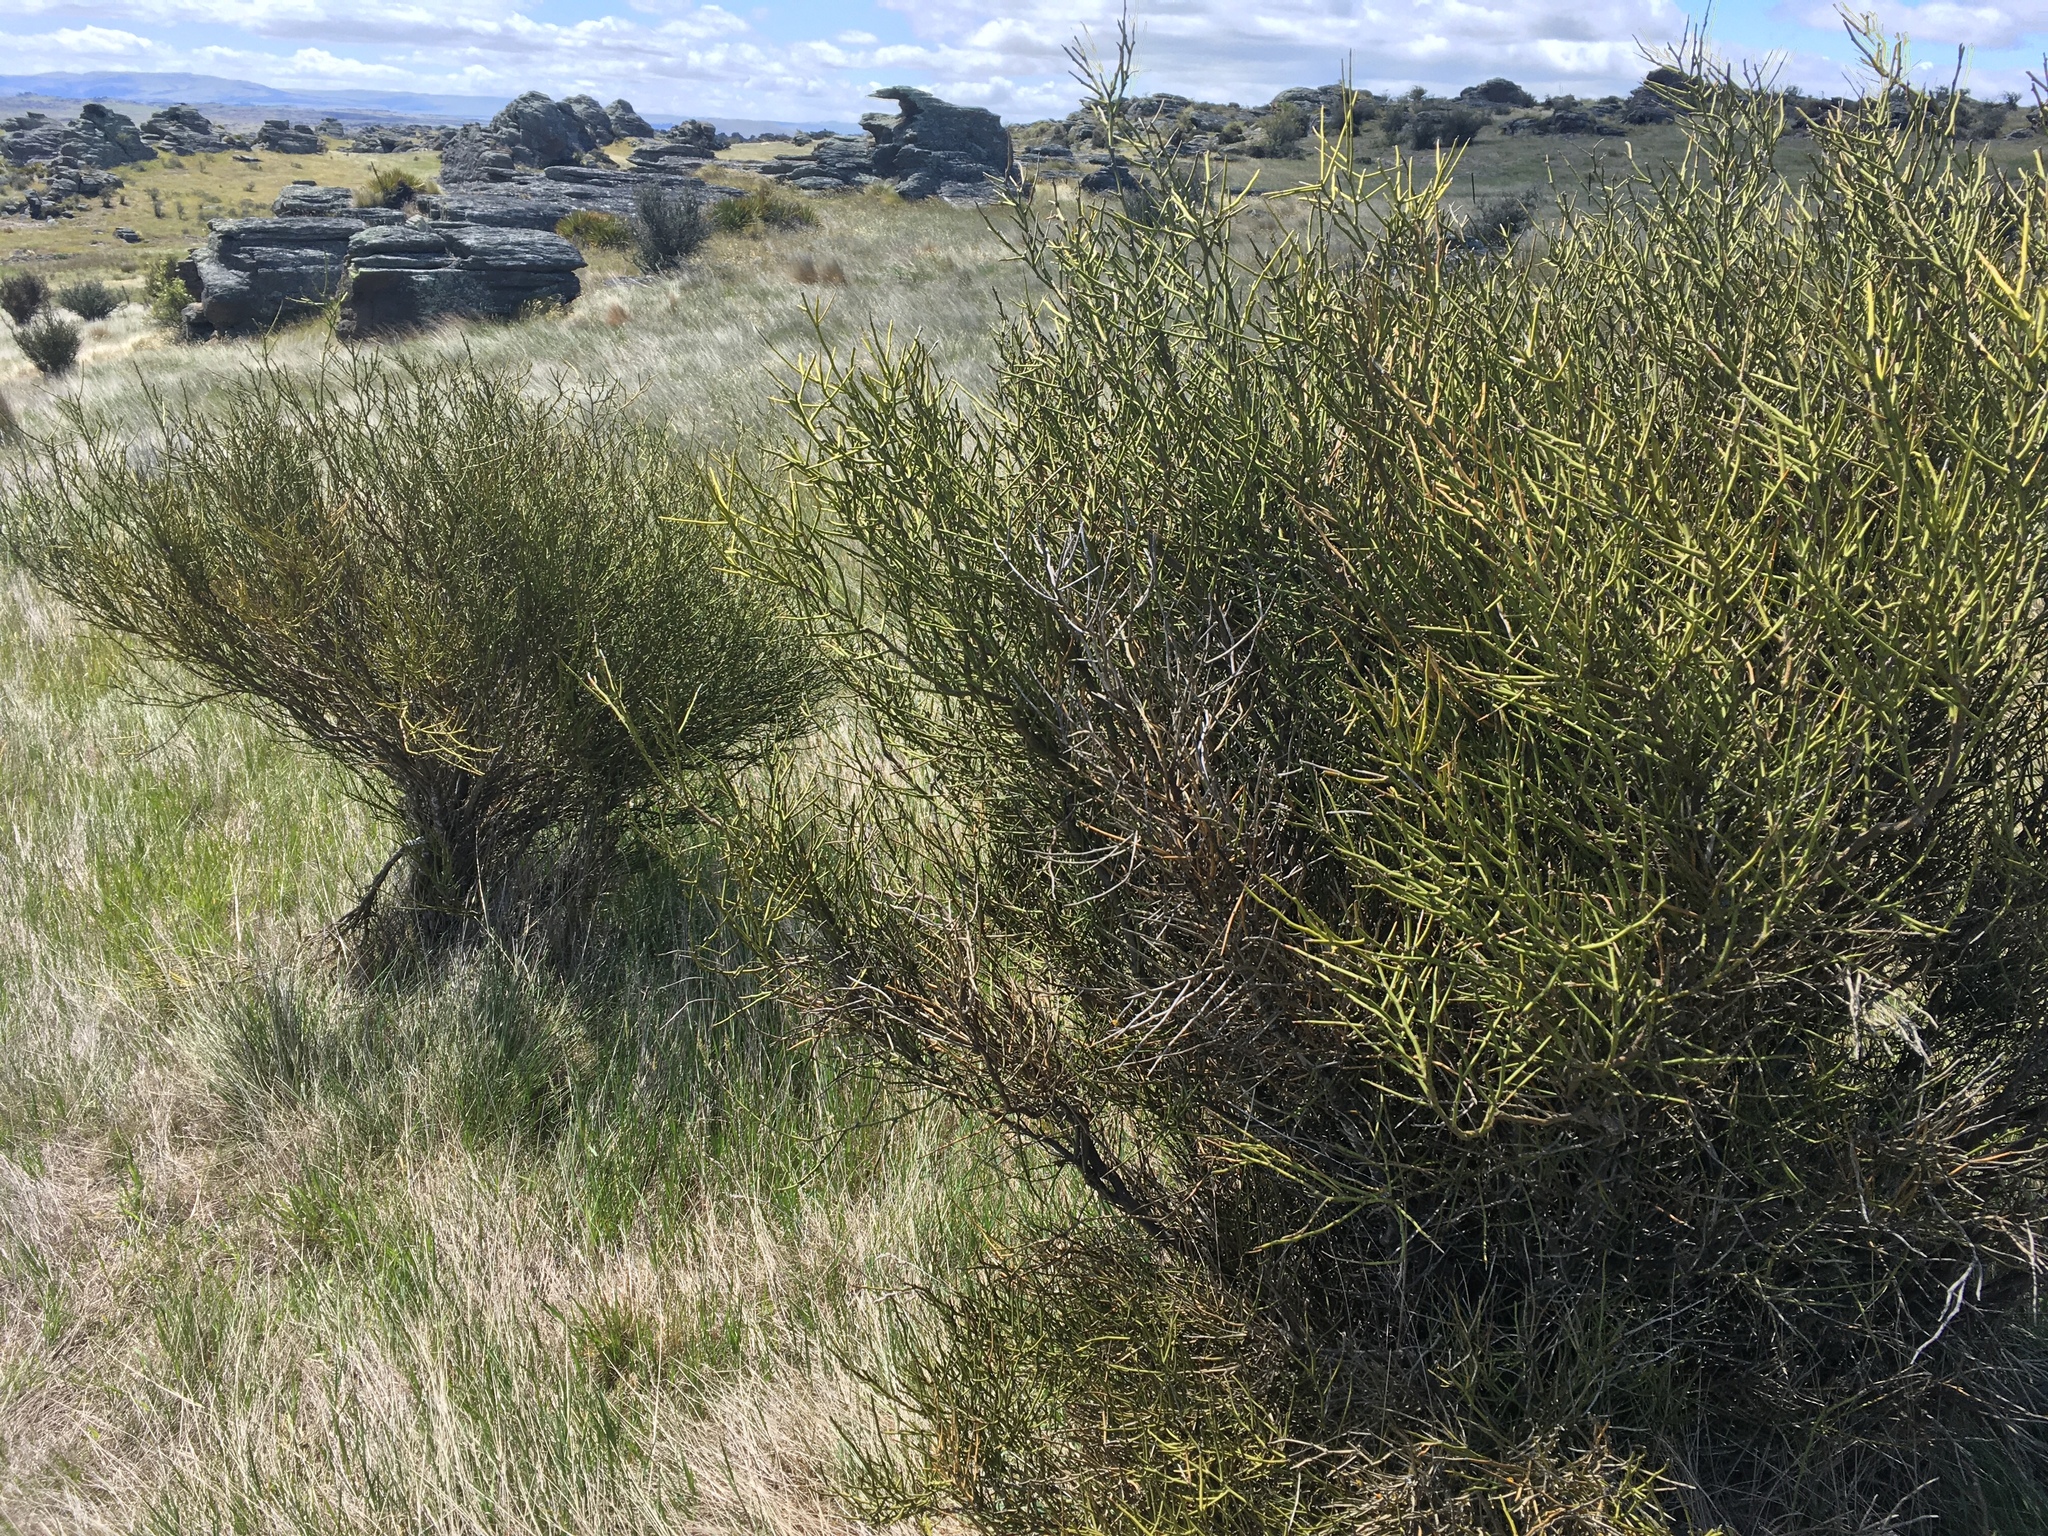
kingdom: Plantae
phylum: Tracheophyta
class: Magnoliopsida
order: Fabales
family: Fabaceae
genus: Carmichaelia
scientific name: Carmichaelia petriei
